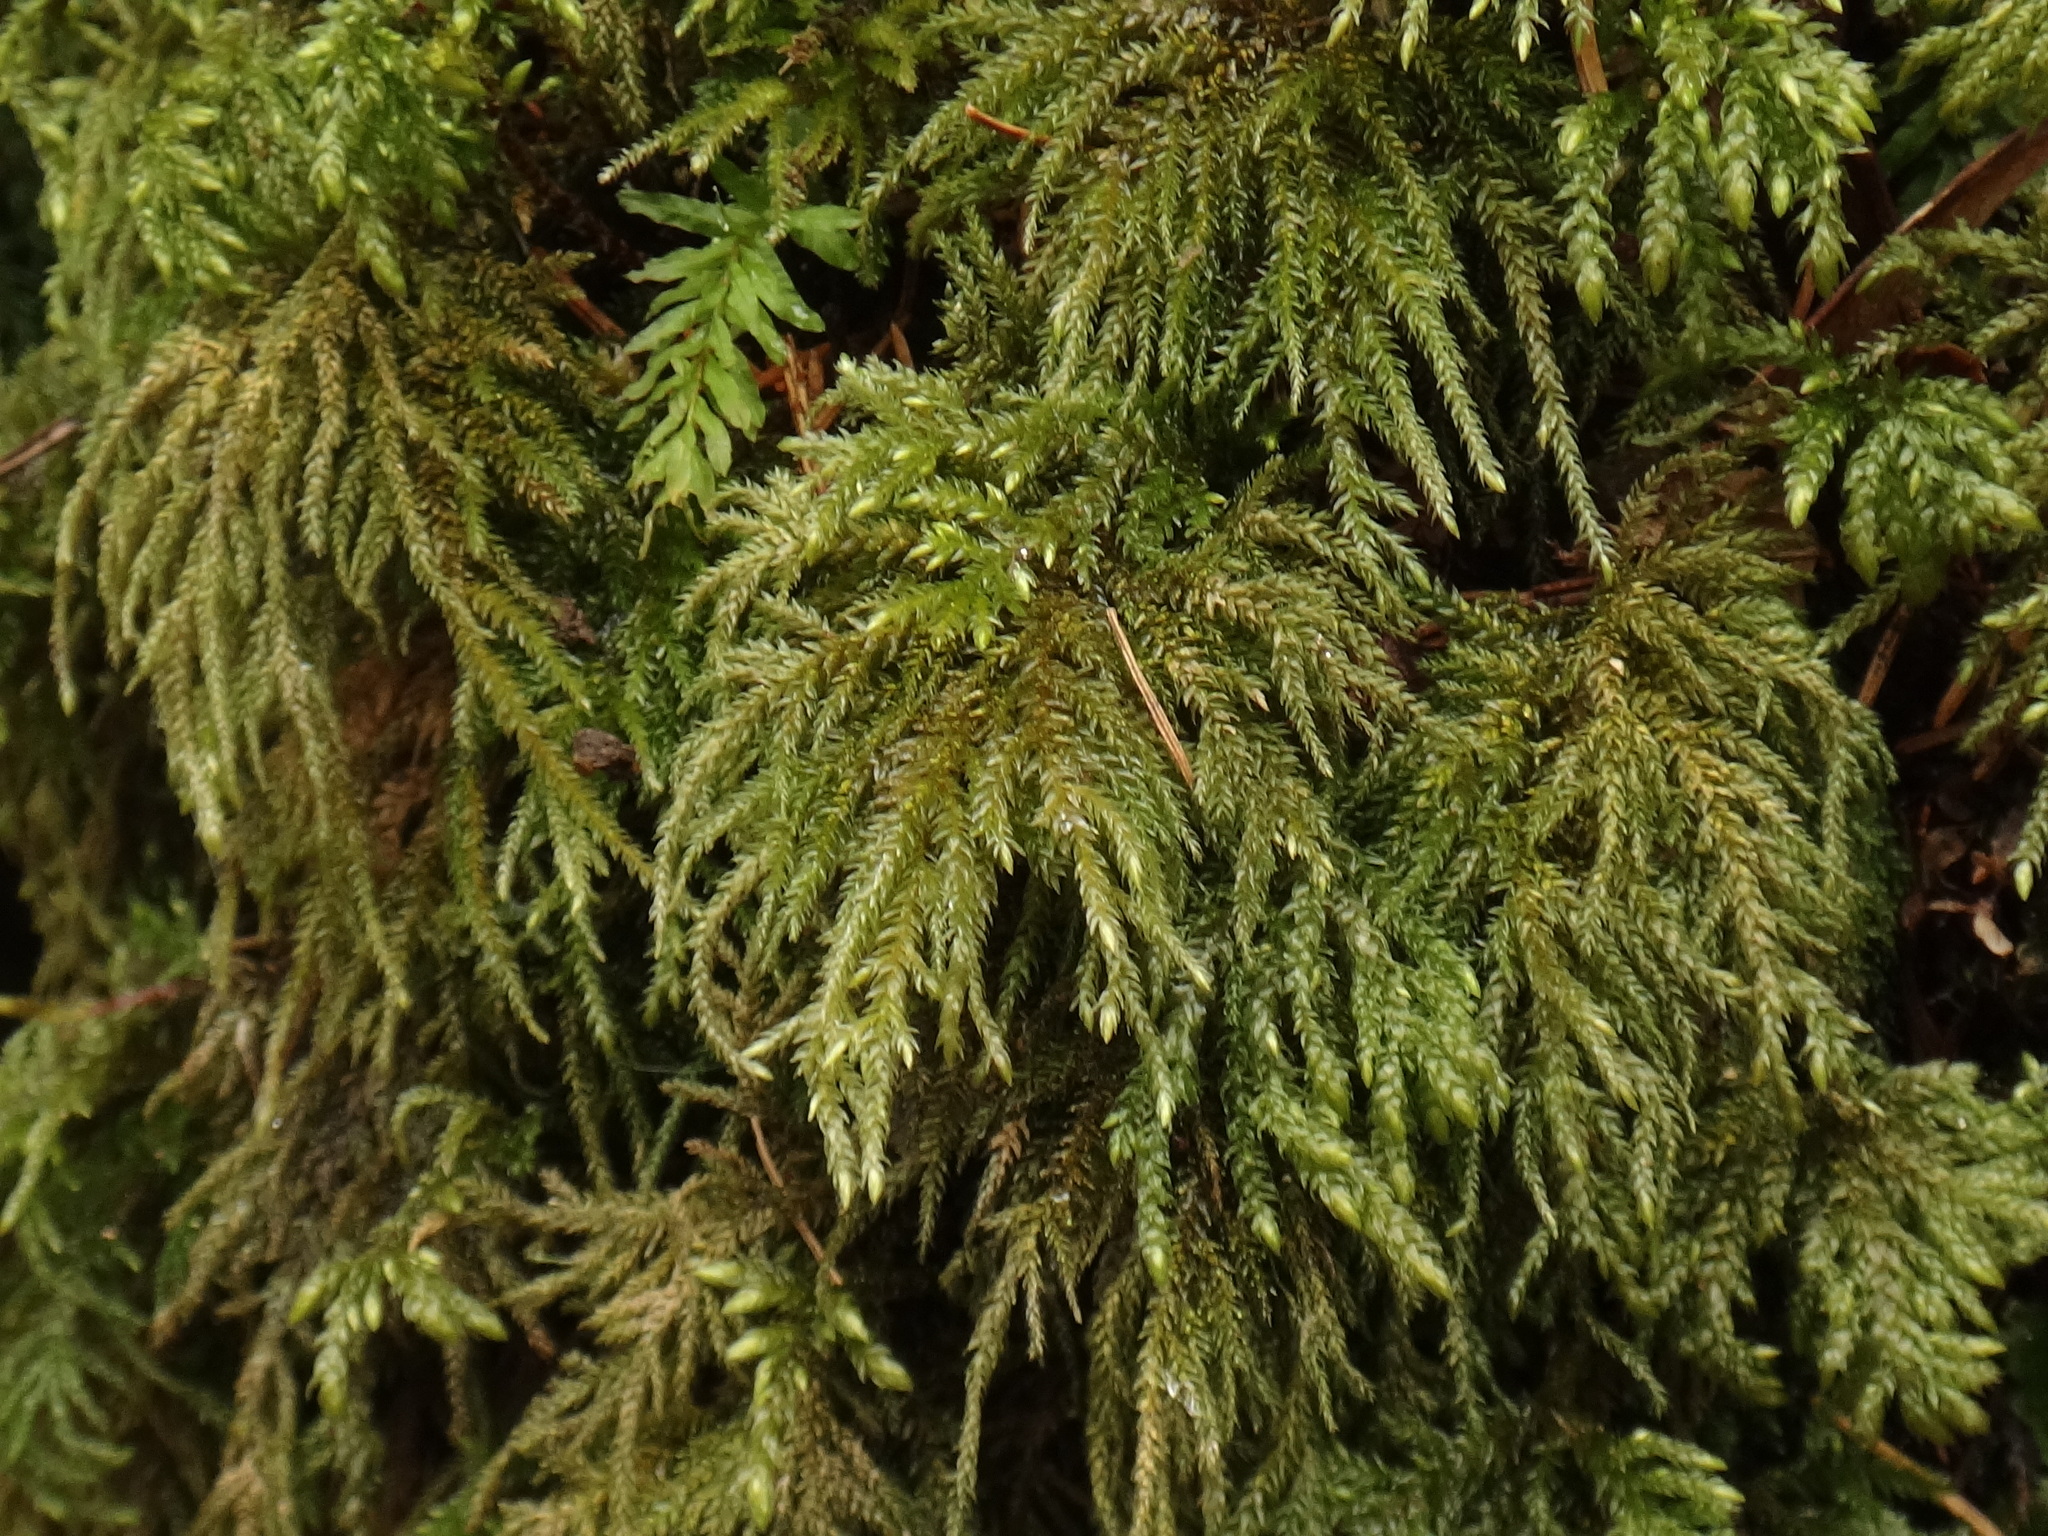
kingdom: Plantae
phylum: Bryophyta
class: Bryopsida
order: Hypnales
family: Neckeraceae
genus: Thamnobryum
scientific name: Thamnobryum alopecurum
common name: Fox-tail feather-moss
